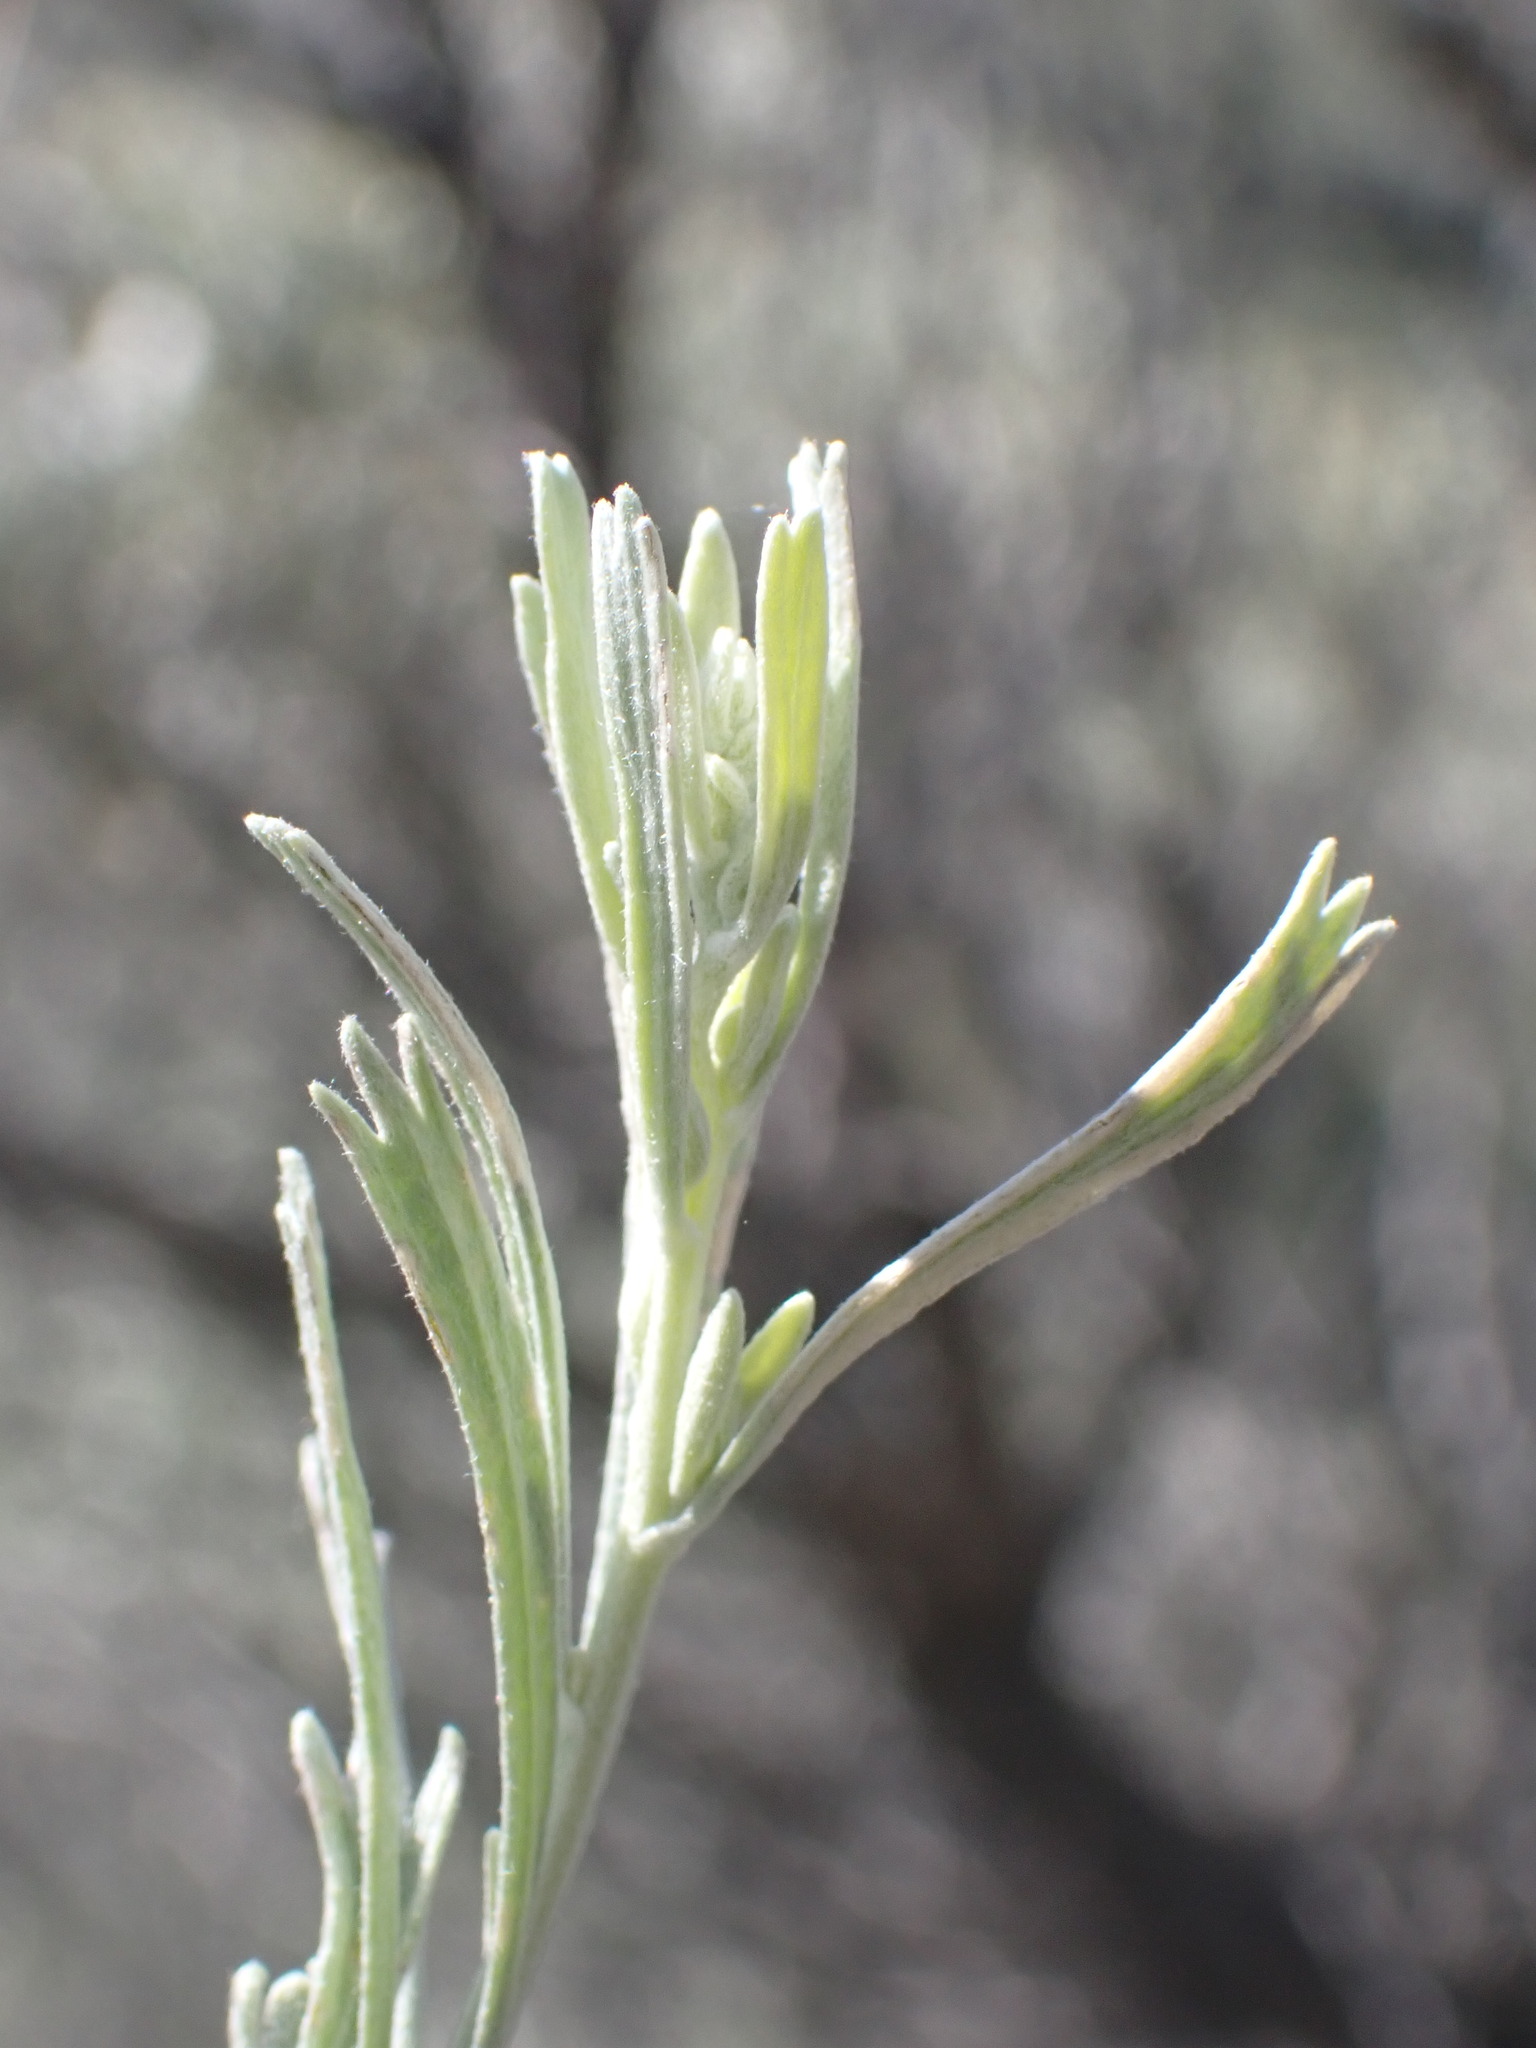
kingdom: Animalia
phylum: Arthropoda
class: Insecta
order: Diptera
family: Cecidomyiidae
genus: Rhopalomyia
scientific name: Rhopalomyia medusa
